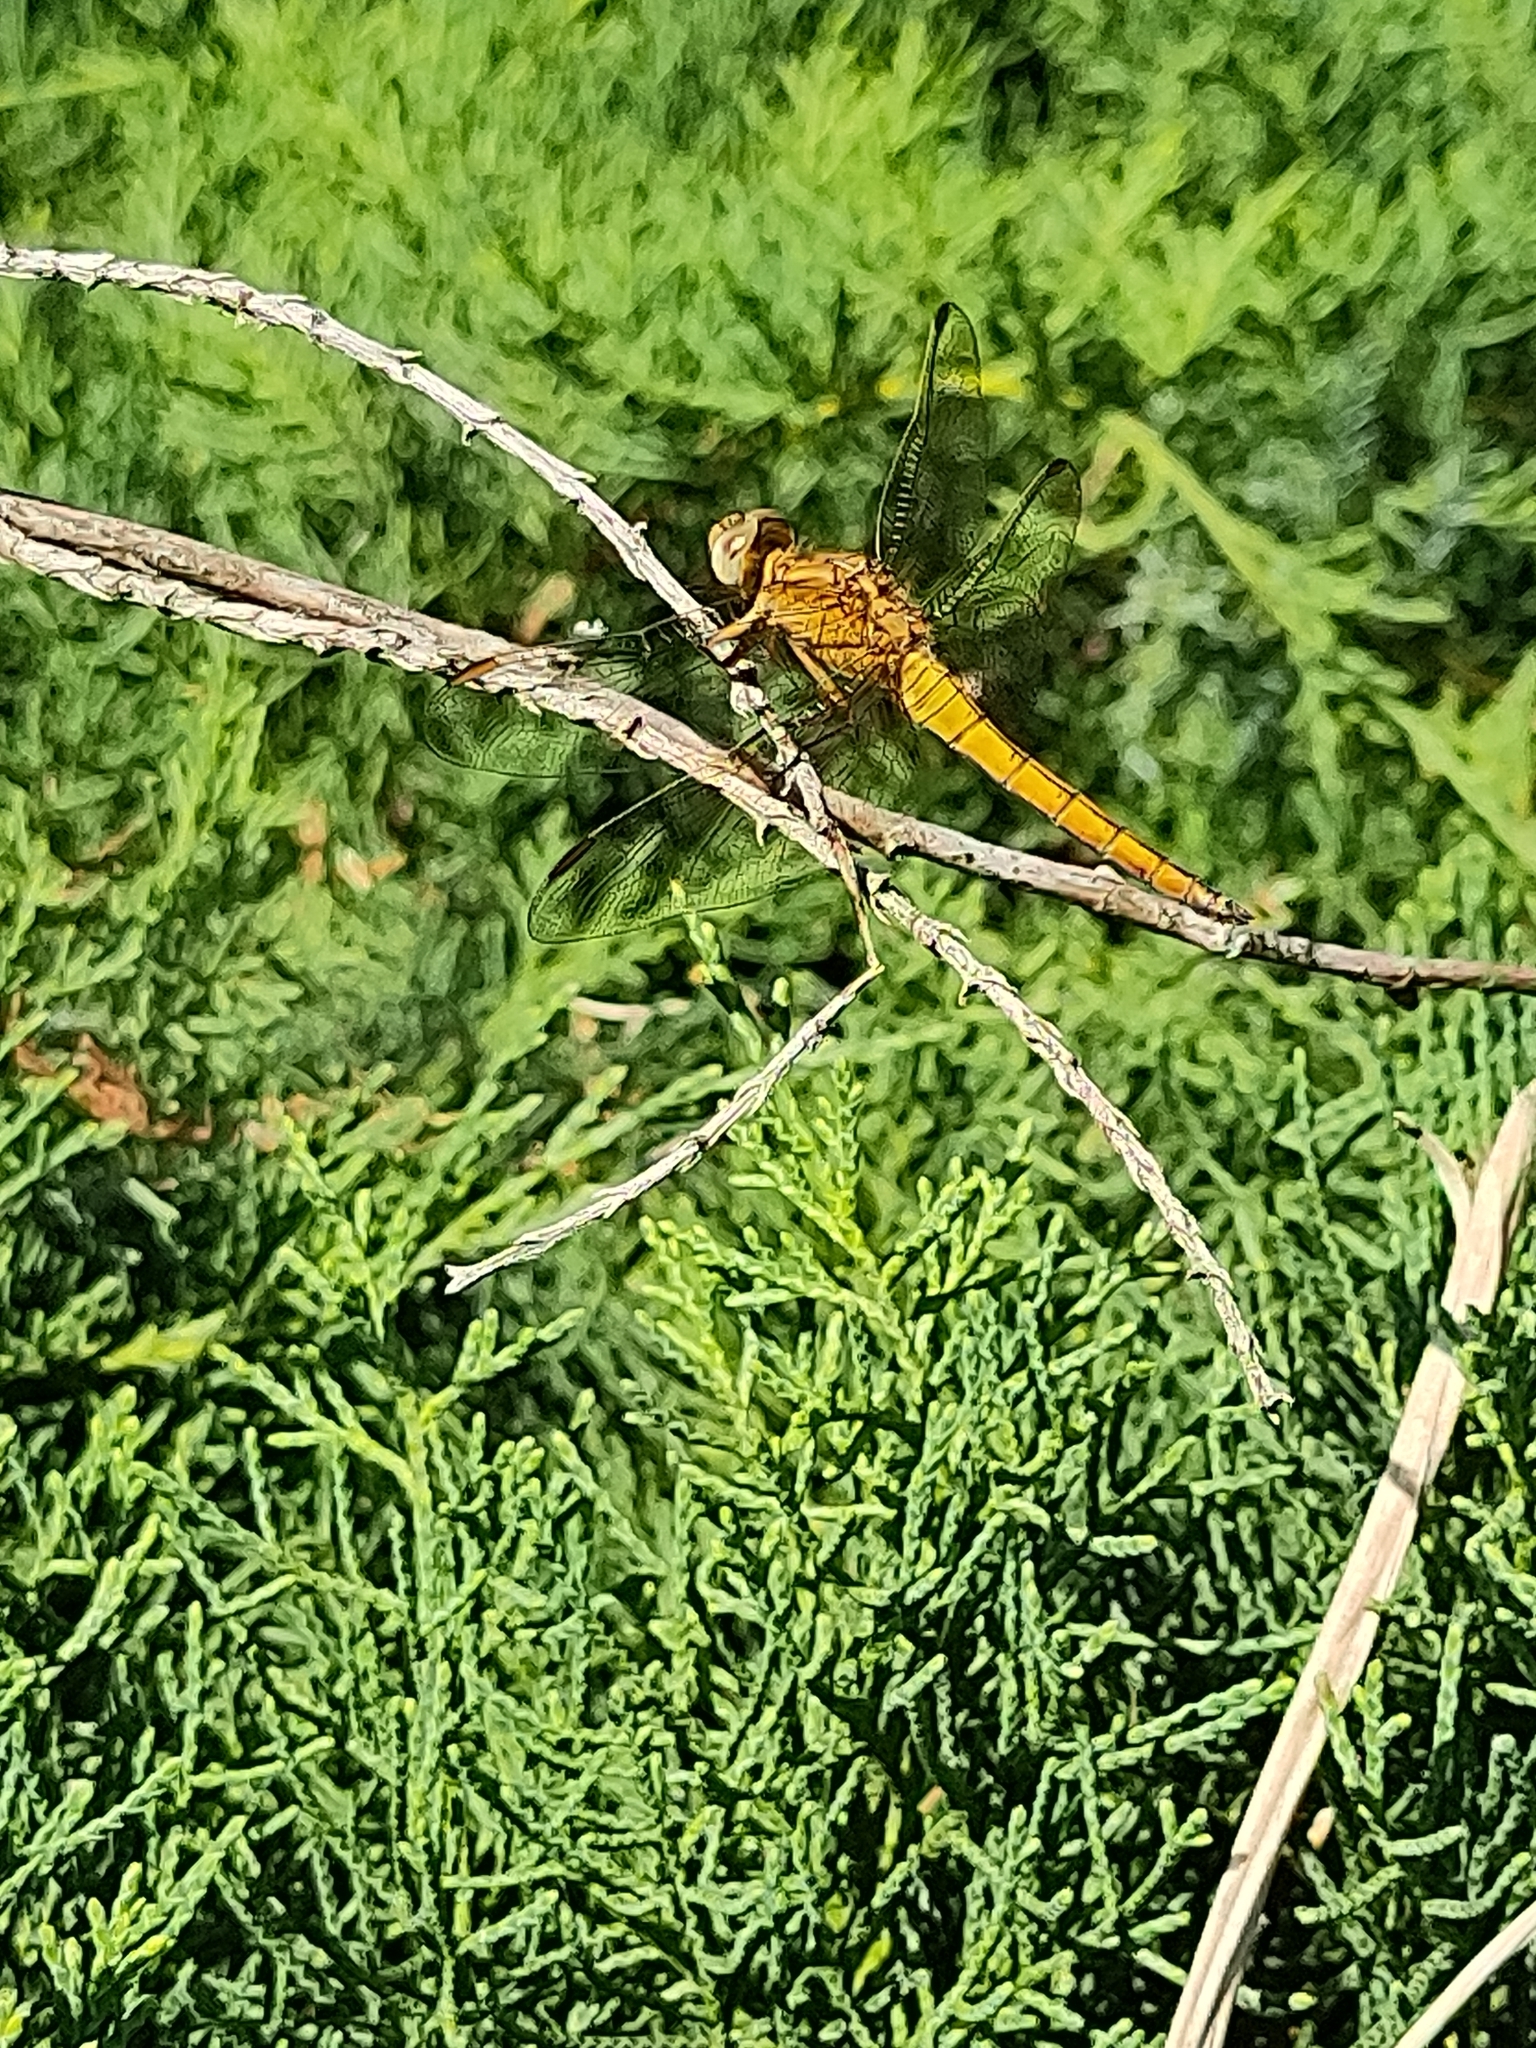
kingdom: Animalia
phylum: Arthropoda
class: Insecta
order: Odonata
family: Libellulidae
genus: Orthetrum
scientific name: Orthetrum coerulescens
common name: Keeled skimmer
